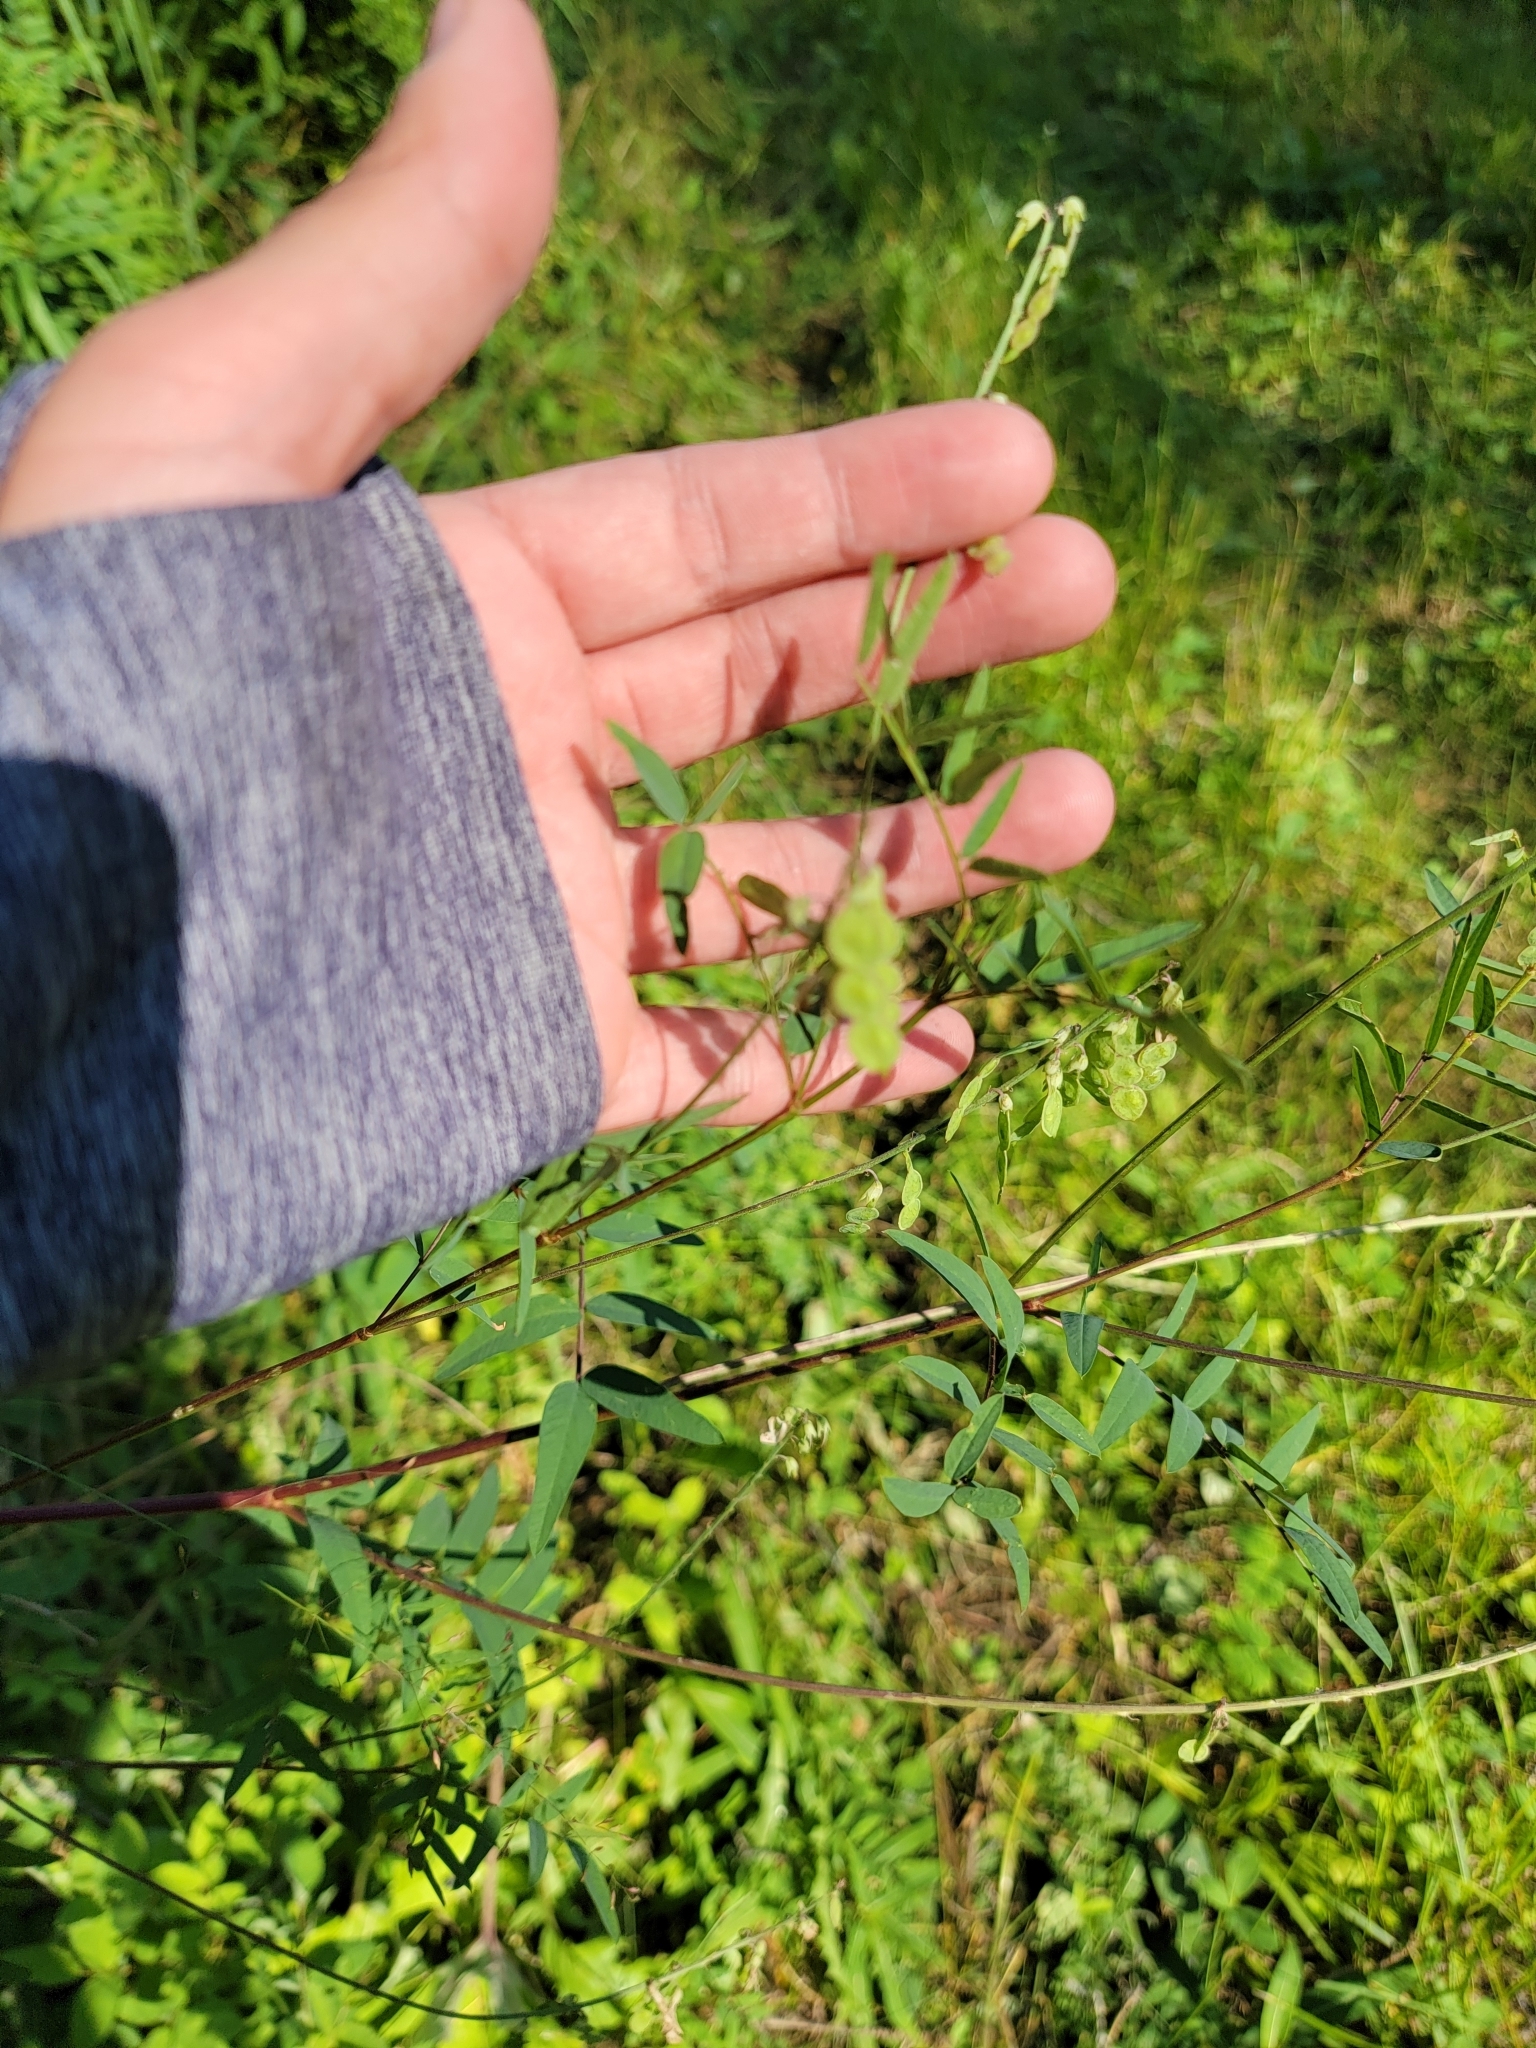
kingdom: Plantae
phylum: Tracheophyta
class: Magnoliopsida
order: Fabales
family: Fabaceae
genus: Hedysarum
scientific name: Hedysarum alpinum
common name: Alpine sweet-vetch
